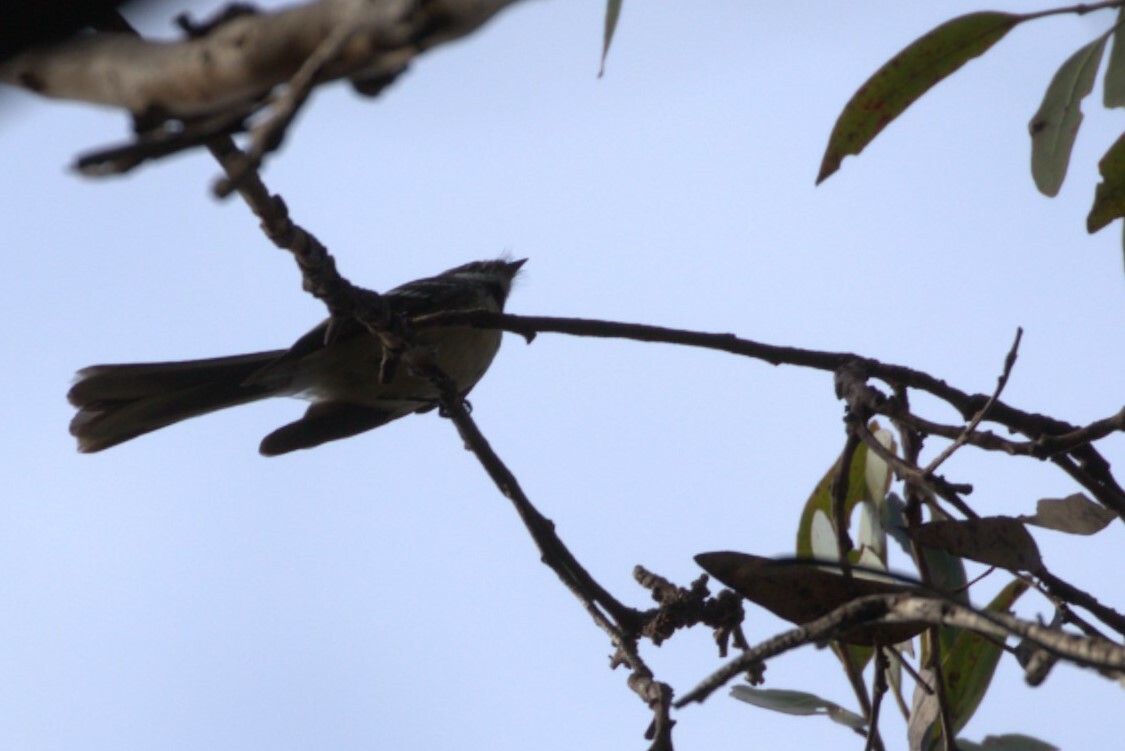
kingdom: Animalia
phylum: Chordata
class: Aves
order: Passeriformes
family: Rhipiduridae
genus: Rhipidura
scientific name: Rhipidura albiscapa
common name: Grey fantail
